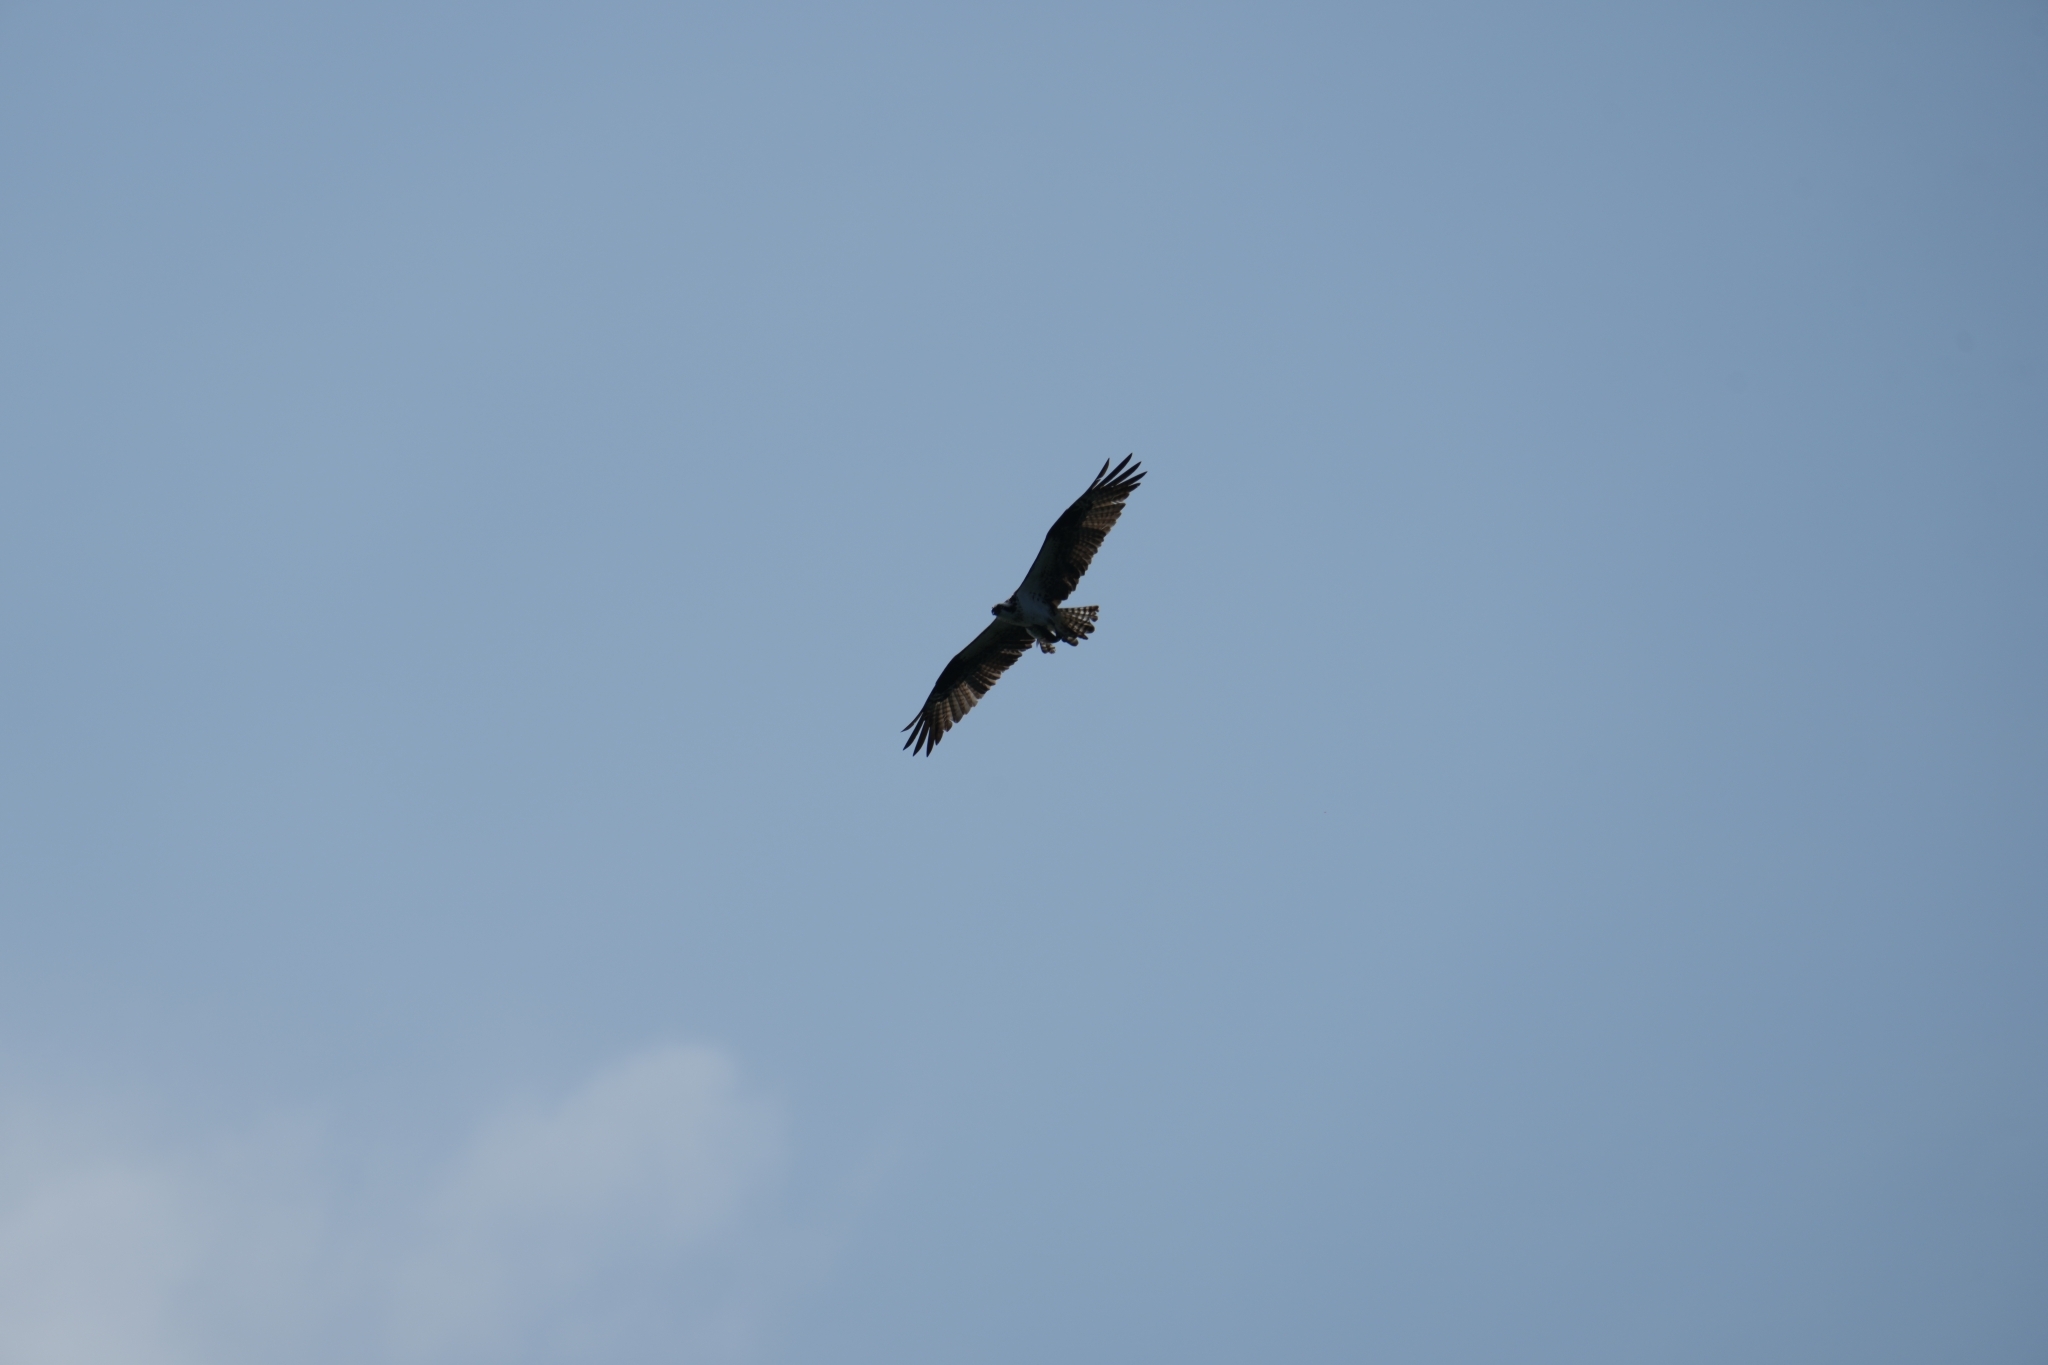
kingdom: Animalia
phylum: Chordata
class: Aves
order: Accipitriformes
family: Pandionidae
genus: Pandion
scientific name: Pandion haliaetus
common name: Osprey
